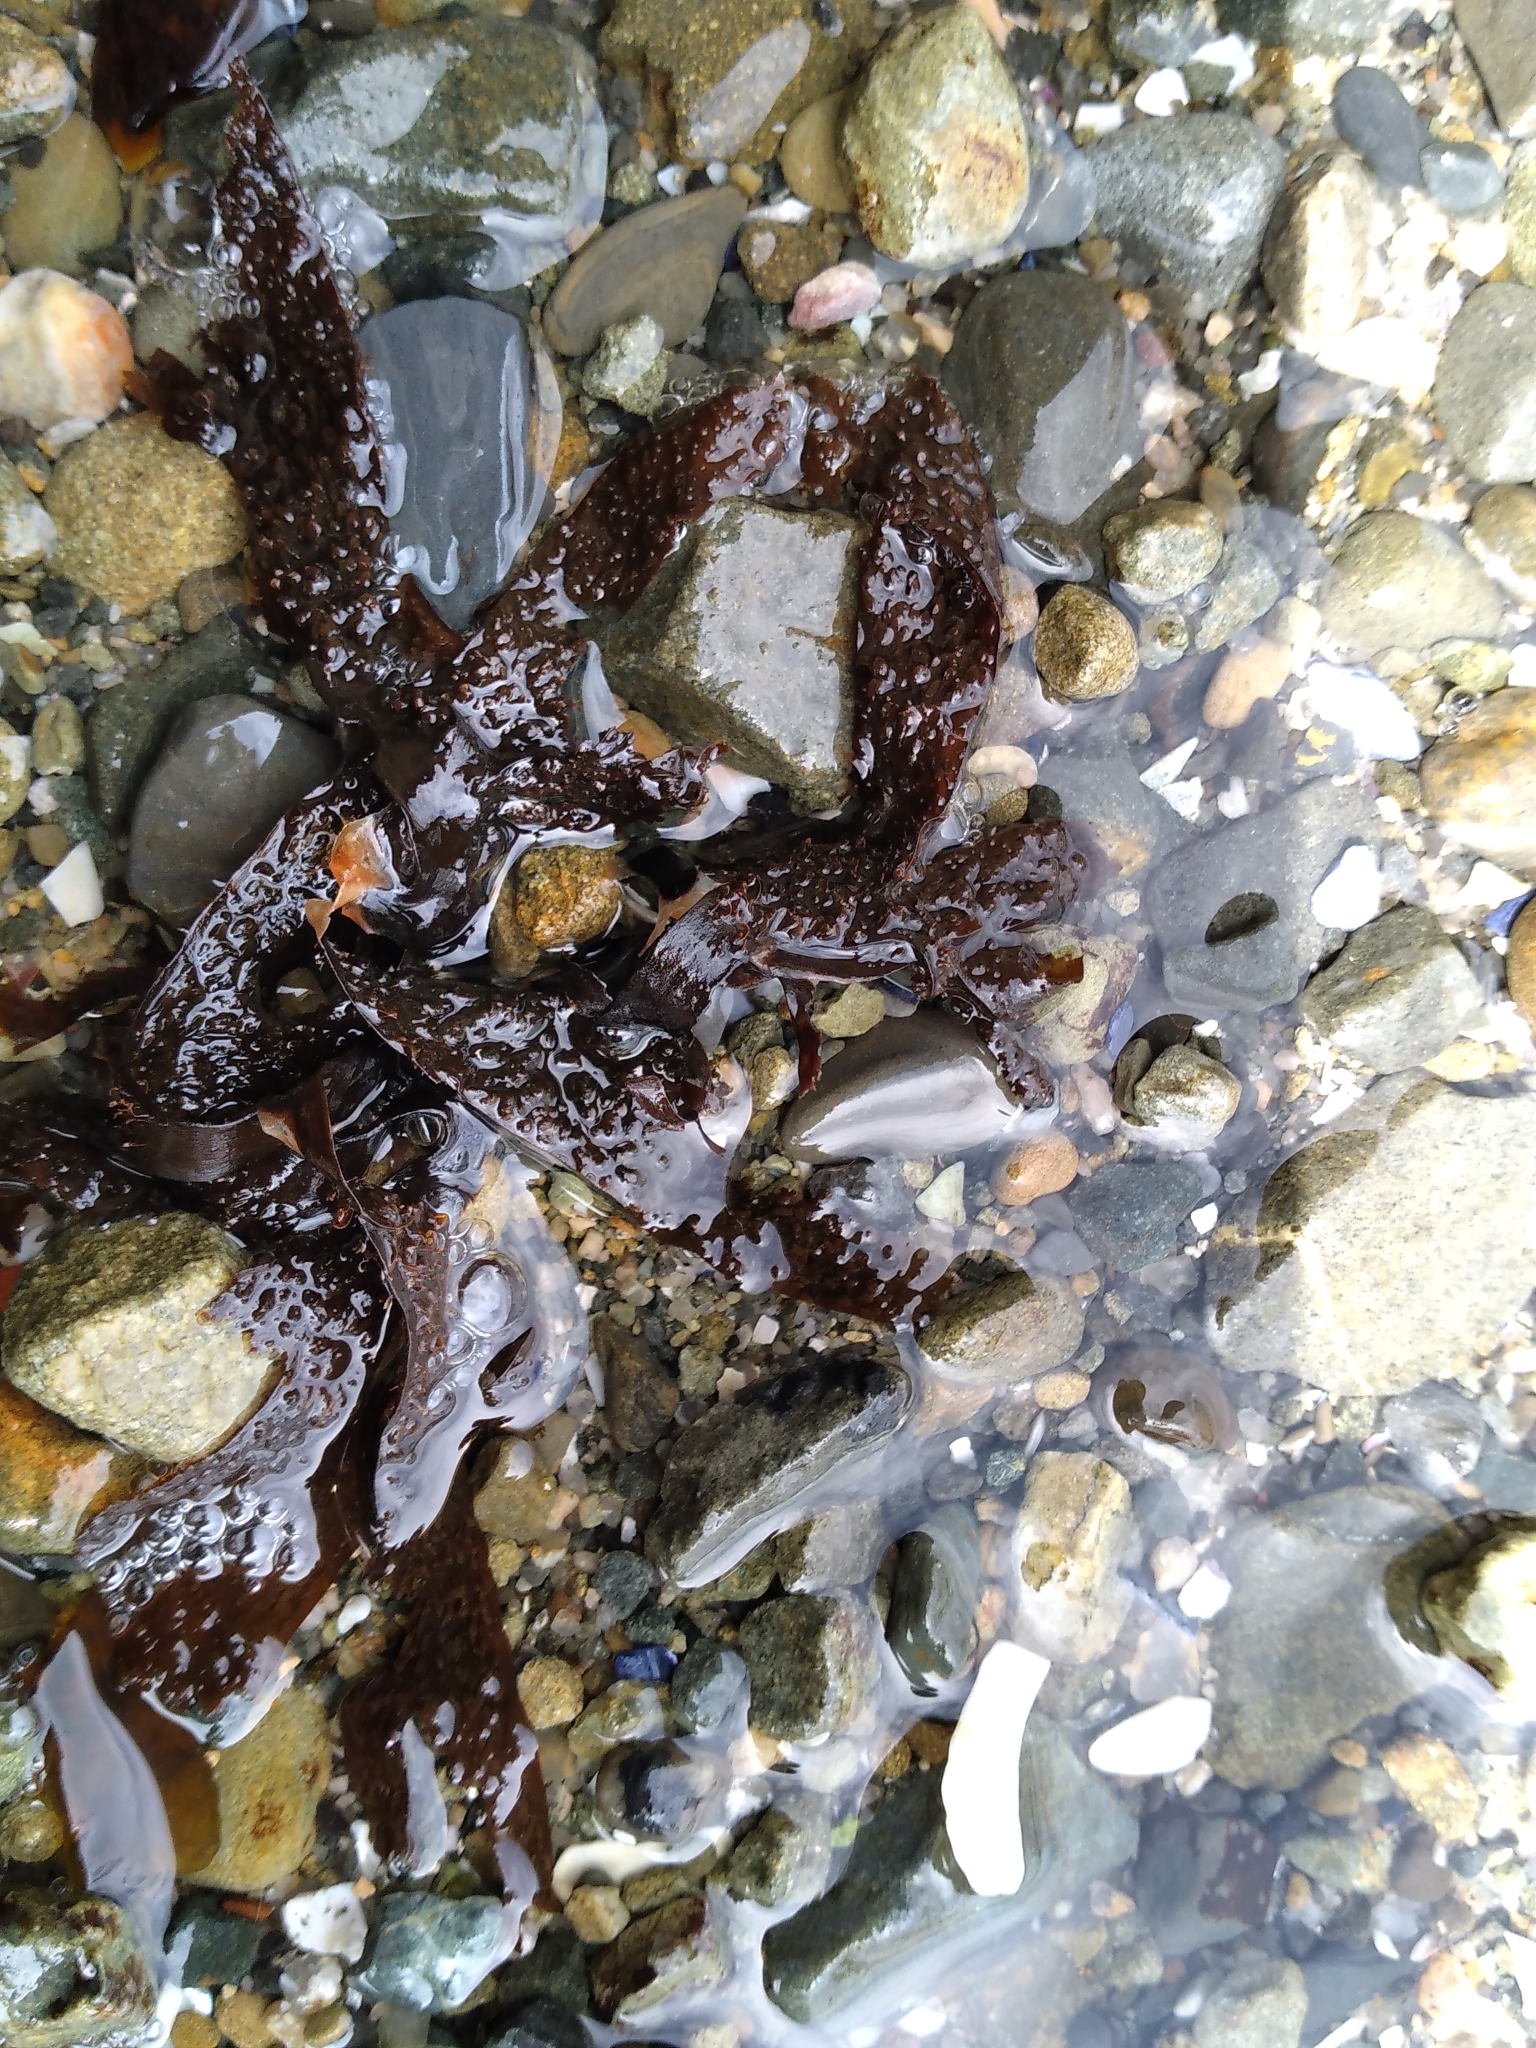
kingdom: Chromista
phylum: Ochrophyta
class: Phaeophyceae
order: Dictyotales
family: Dictyotaceae
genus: Dictyota
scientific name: Dictyota kunthii
